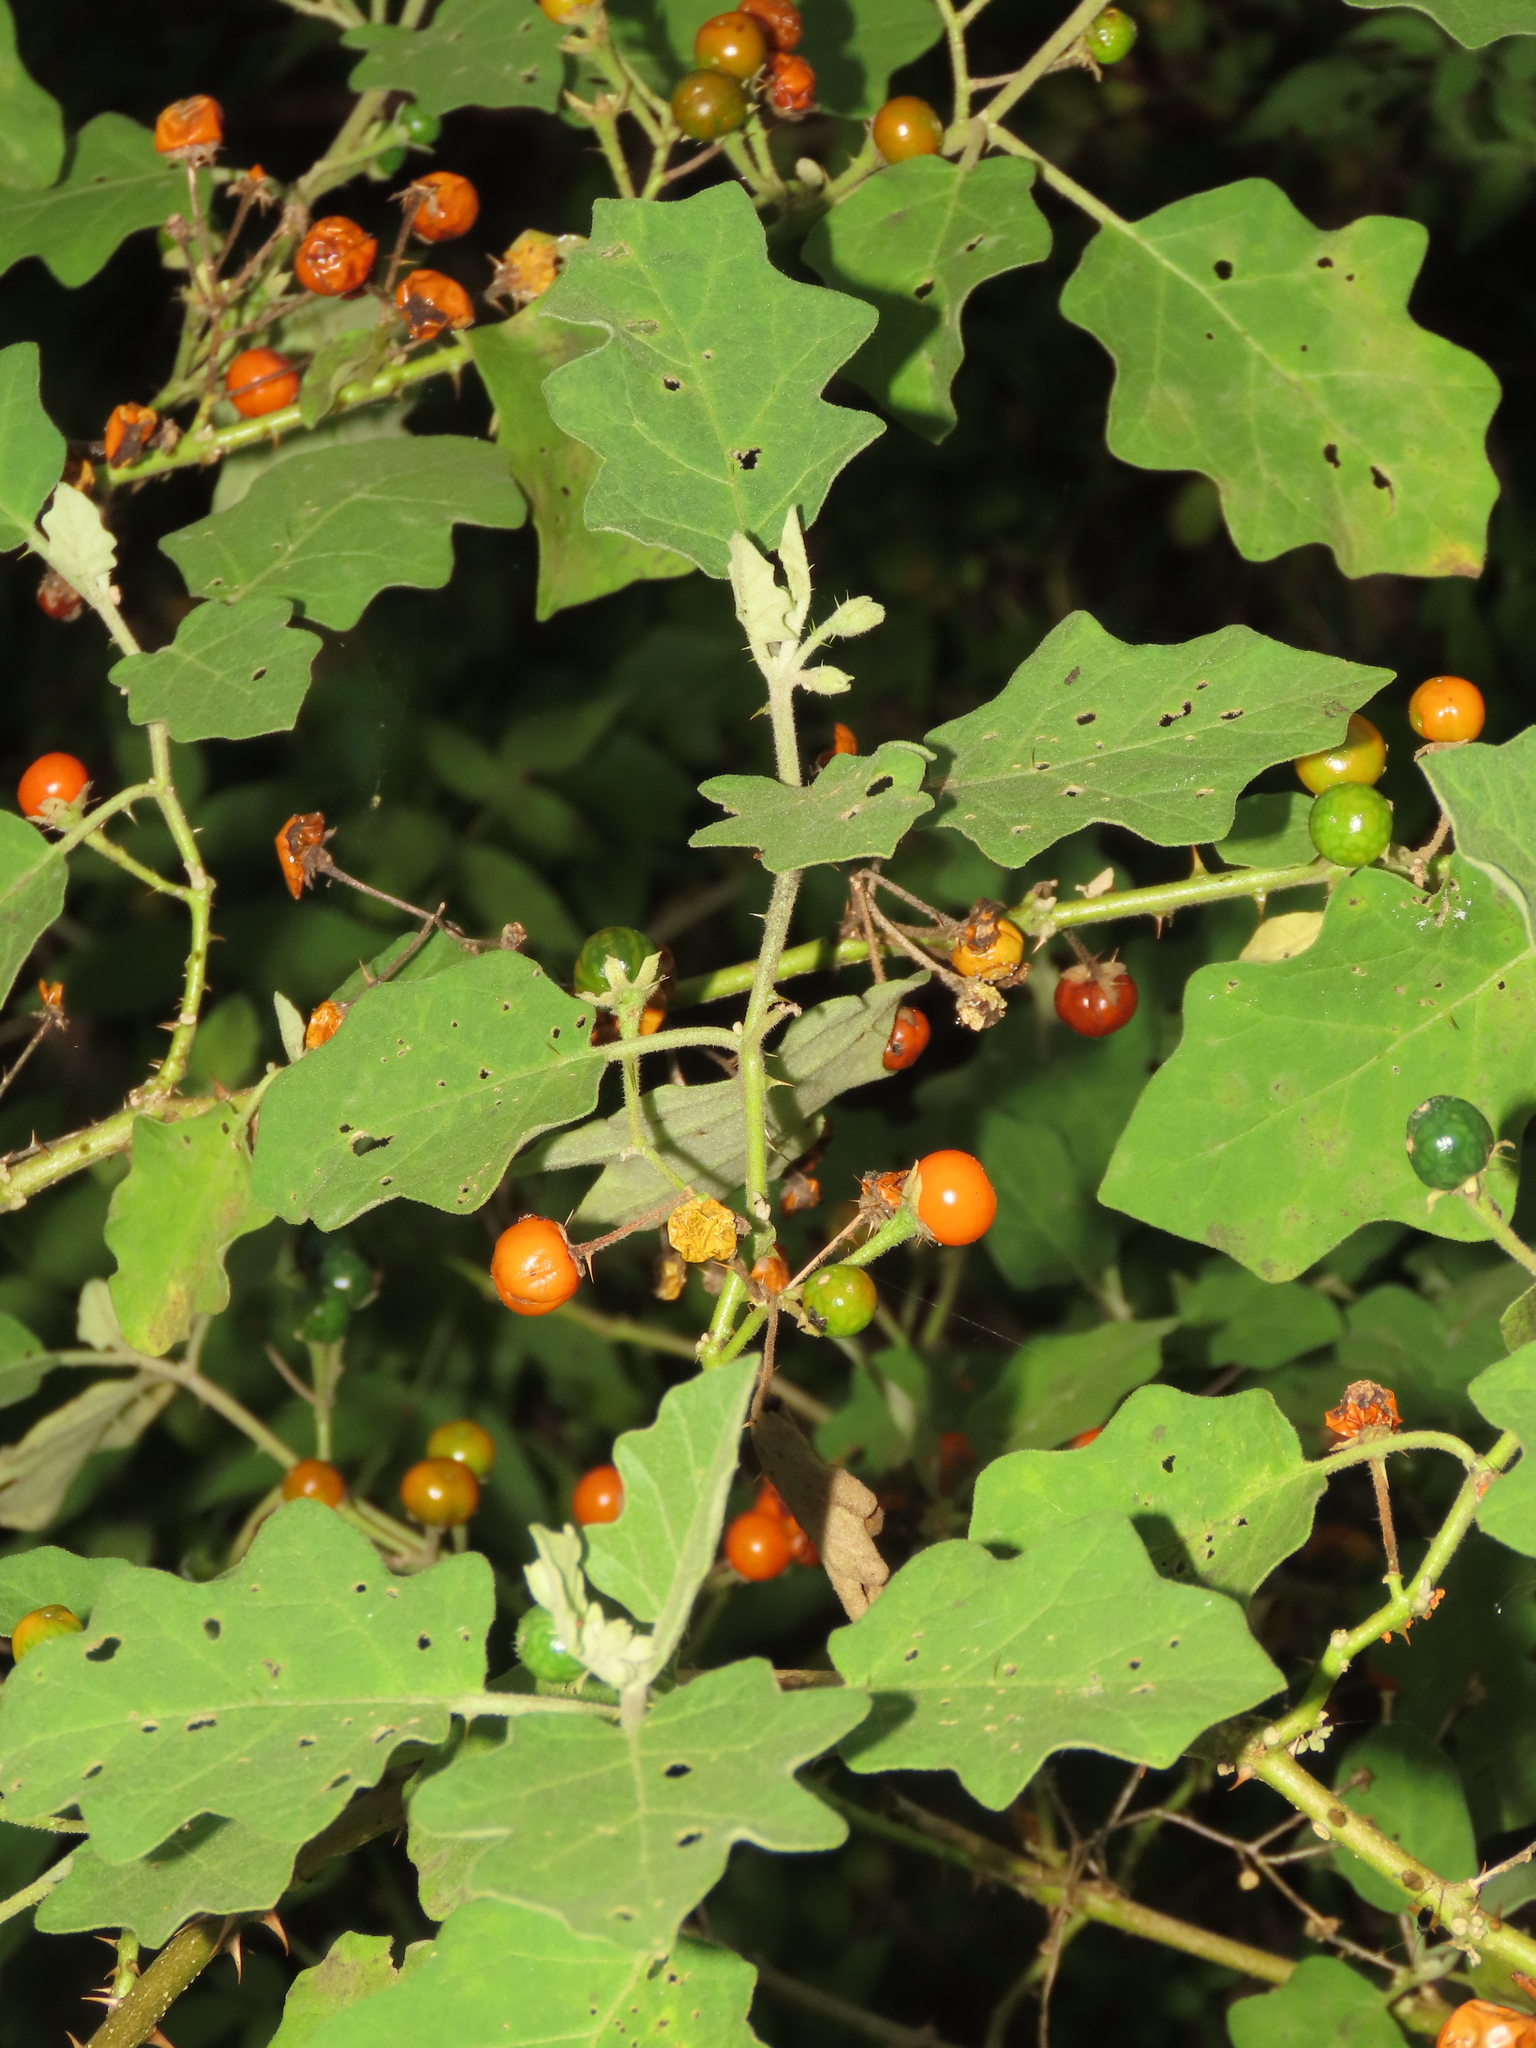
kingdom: Plantae
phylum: Tracheophyta
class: Magnoliopsida
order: Solanales
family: Solanaceae
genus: Solanum
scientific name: Solanum violaceum
